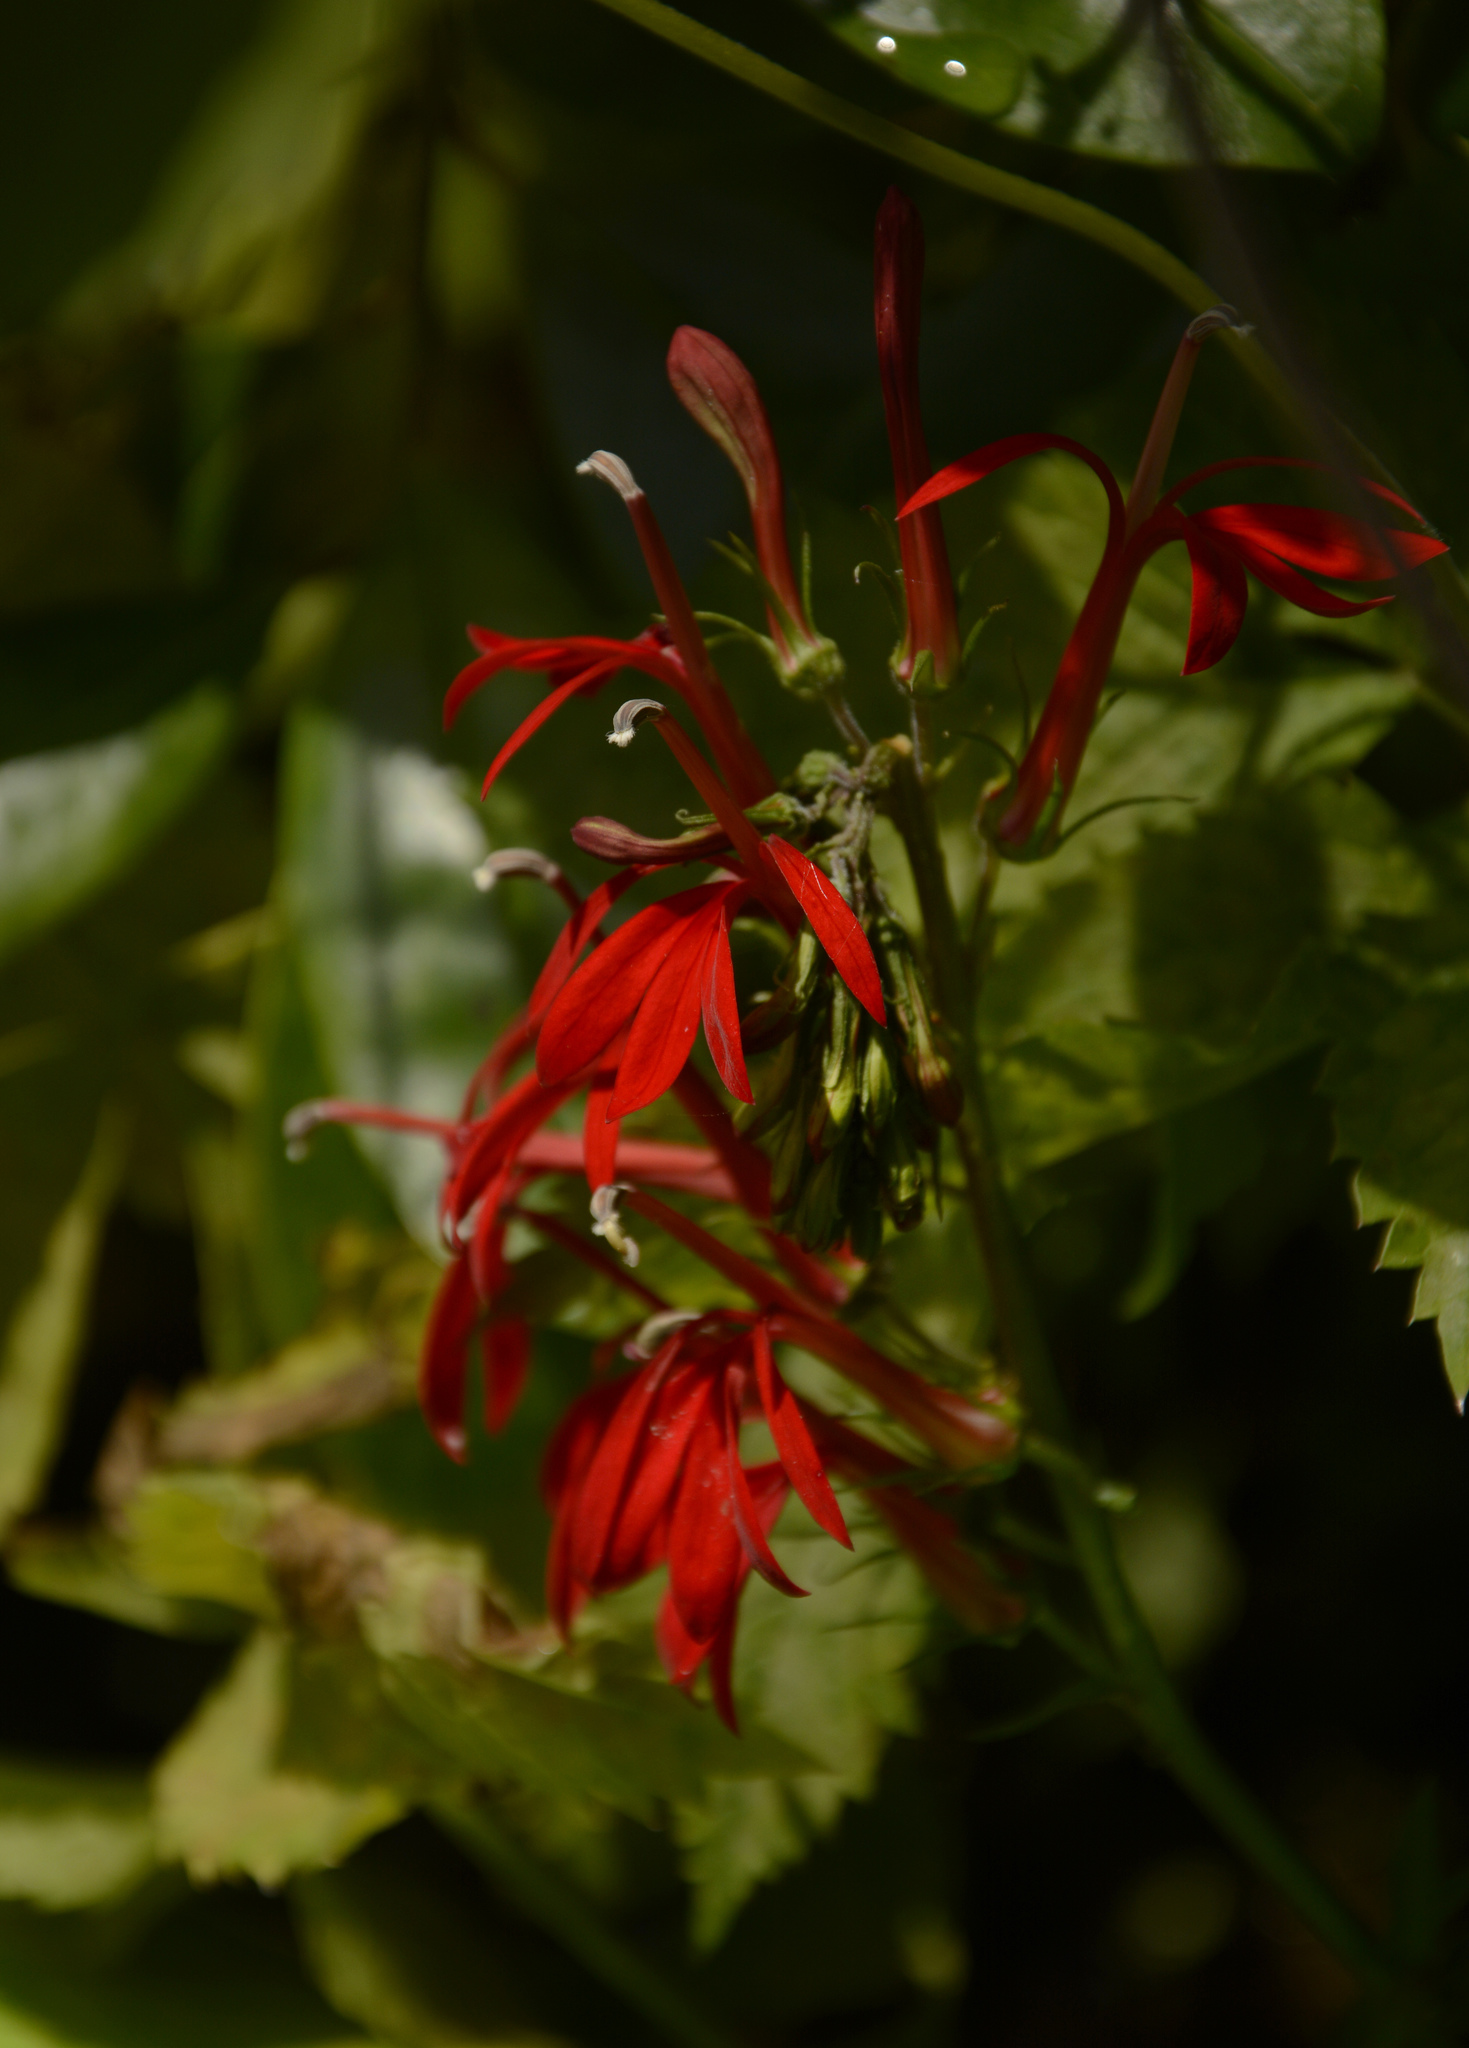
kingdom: Plantae
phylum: Tracheophyta
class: Magnoliopsida
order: Asterales
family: Campanulaceae
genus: Lobelia
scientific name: Lobelia cardinalis
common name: Cardinal flower
